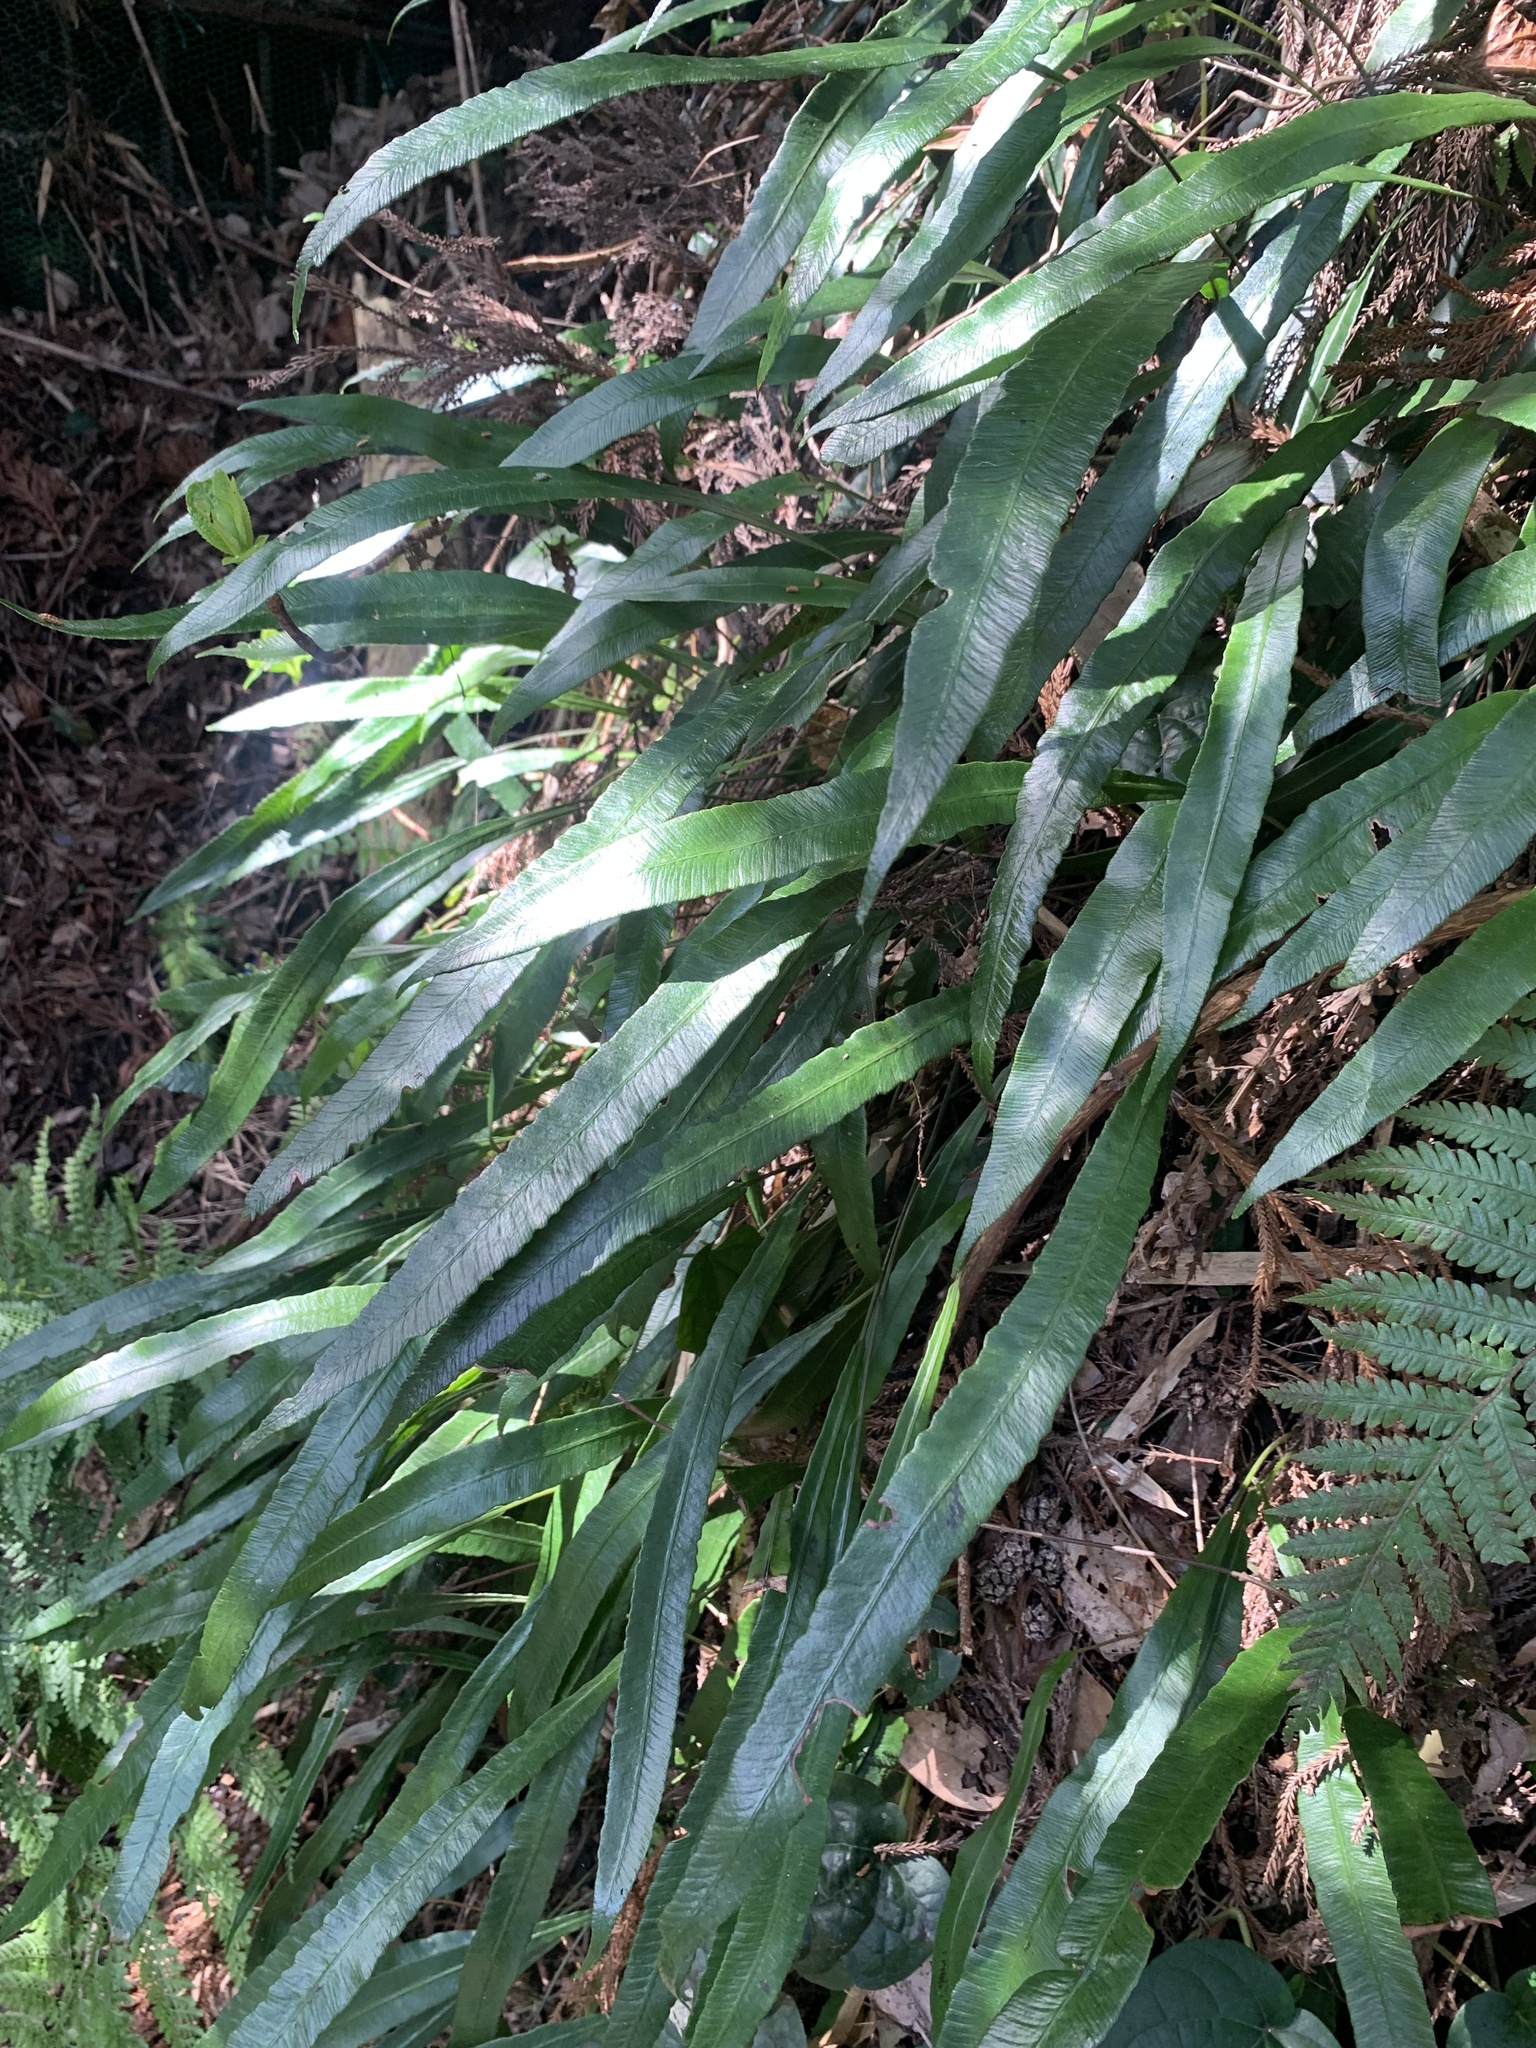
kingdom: Plantae
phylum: Tracheophyta
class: Polypodiopsida
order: Polypodiales
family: Athyriaceae
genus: Deparia
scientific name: Deparia lancea
